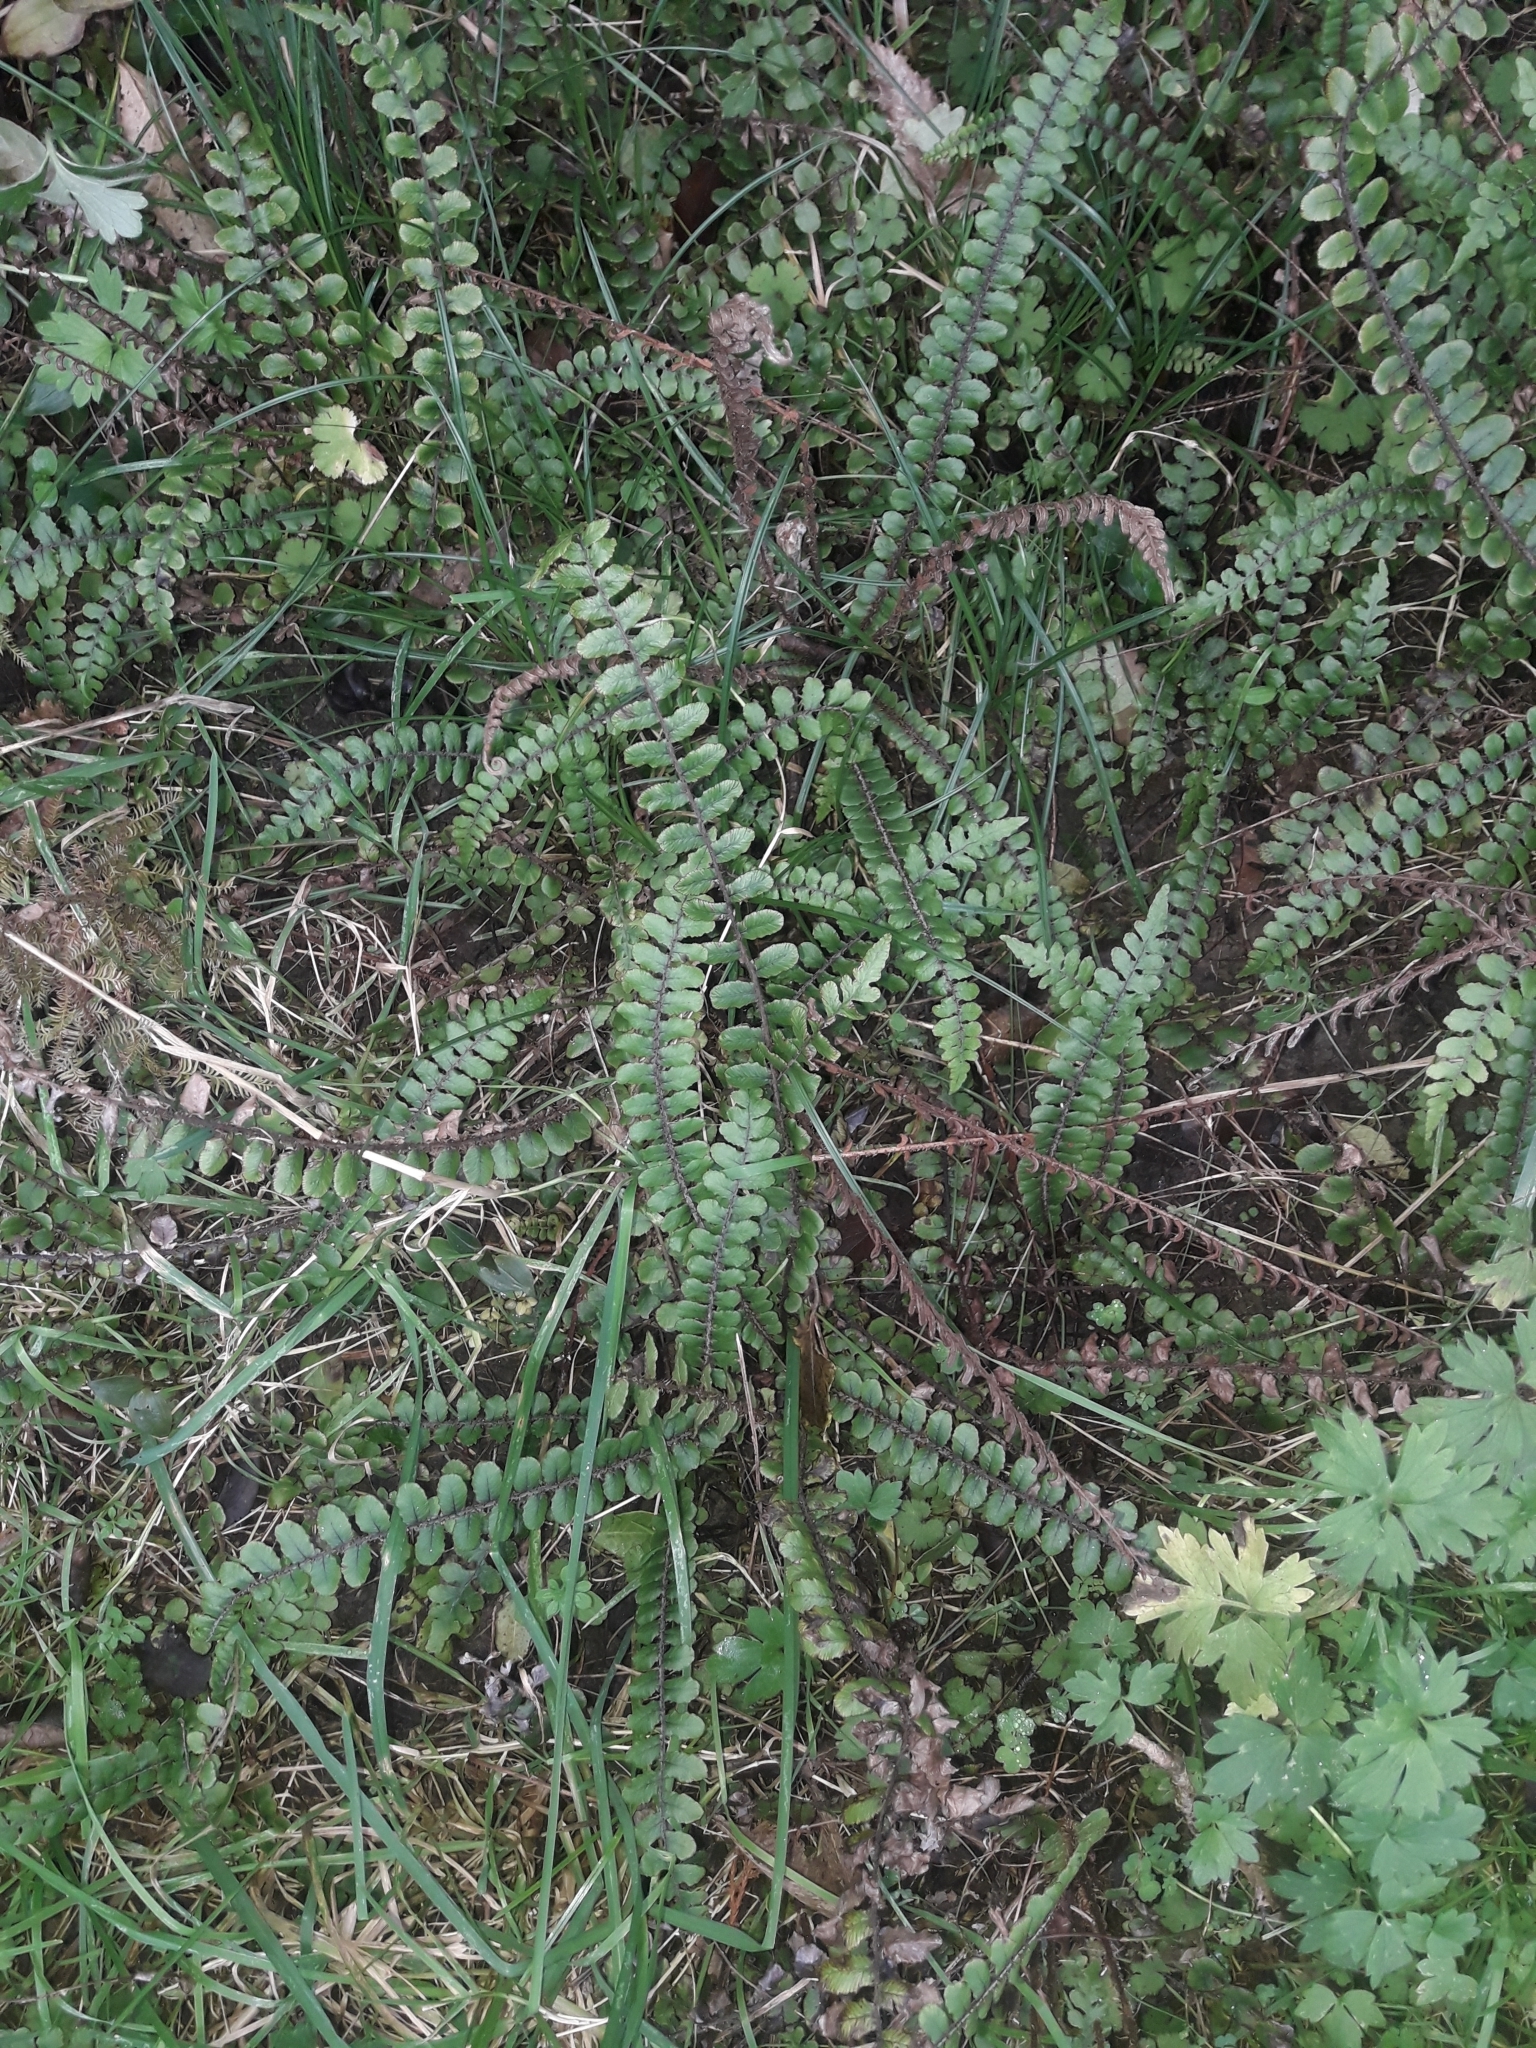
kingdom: Plantae
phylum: Tracheophyta
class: Polypodiopsida
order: Polypodiales
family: Blechnaceae
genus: Cranfillia
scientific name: Cranfillia fluviatilis
